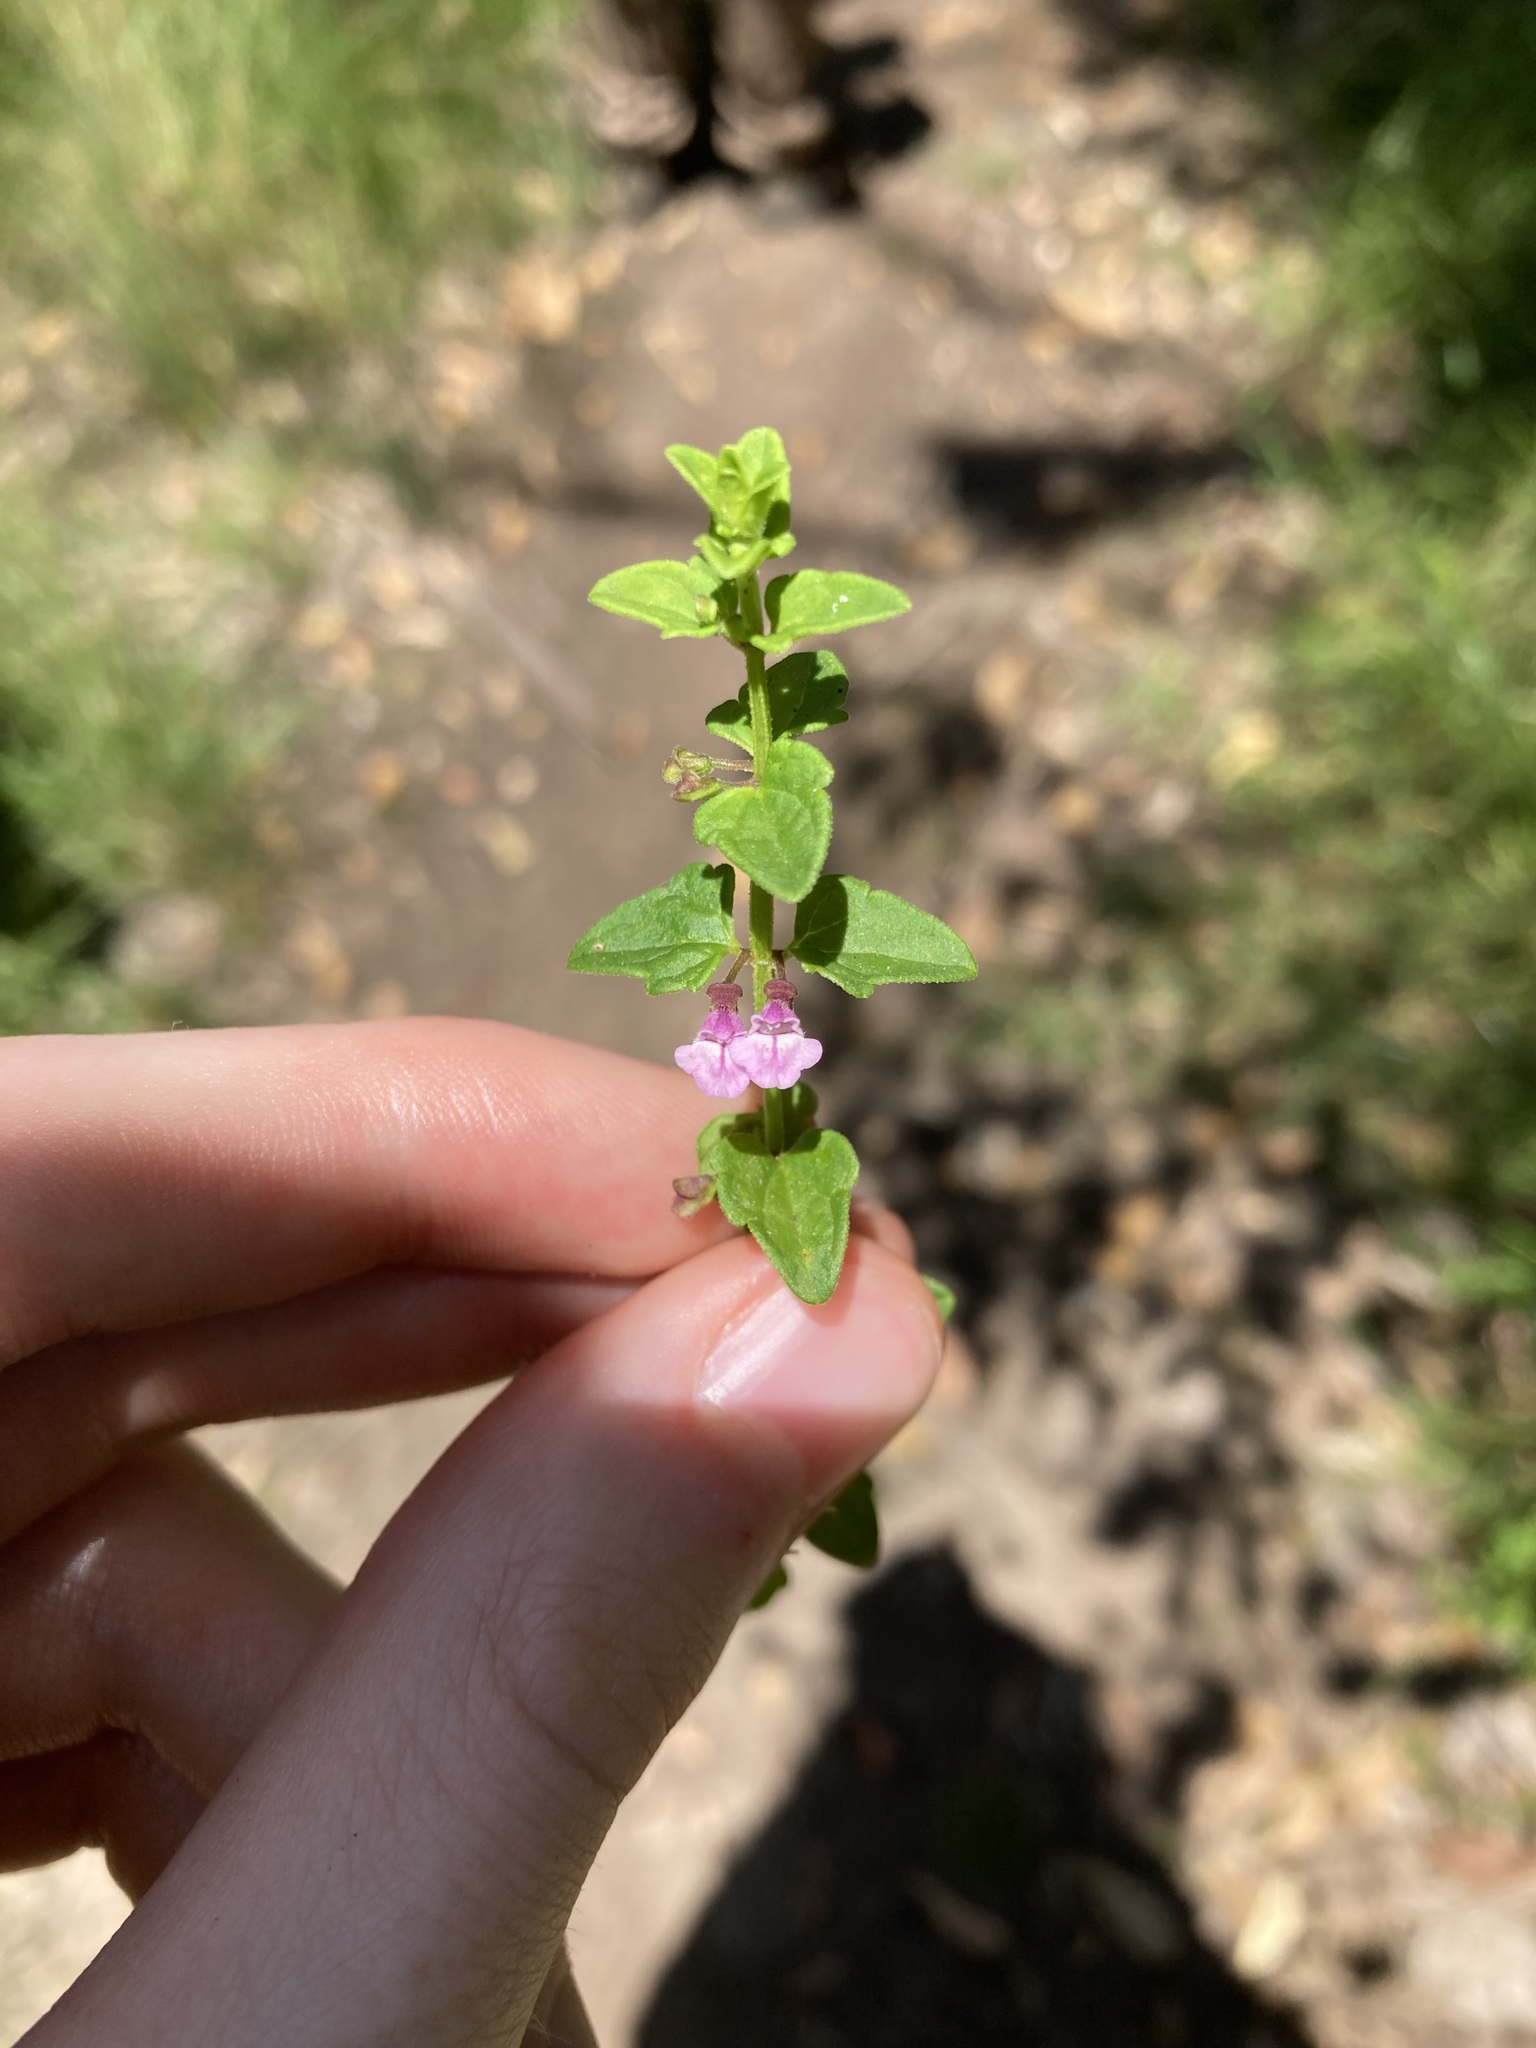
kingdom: Plantae
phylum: Tracheophyta
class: Magnoliopsida
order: Lamiales
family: Lamiaceae
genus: Scutellaria
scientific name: Scutellaria humilis
